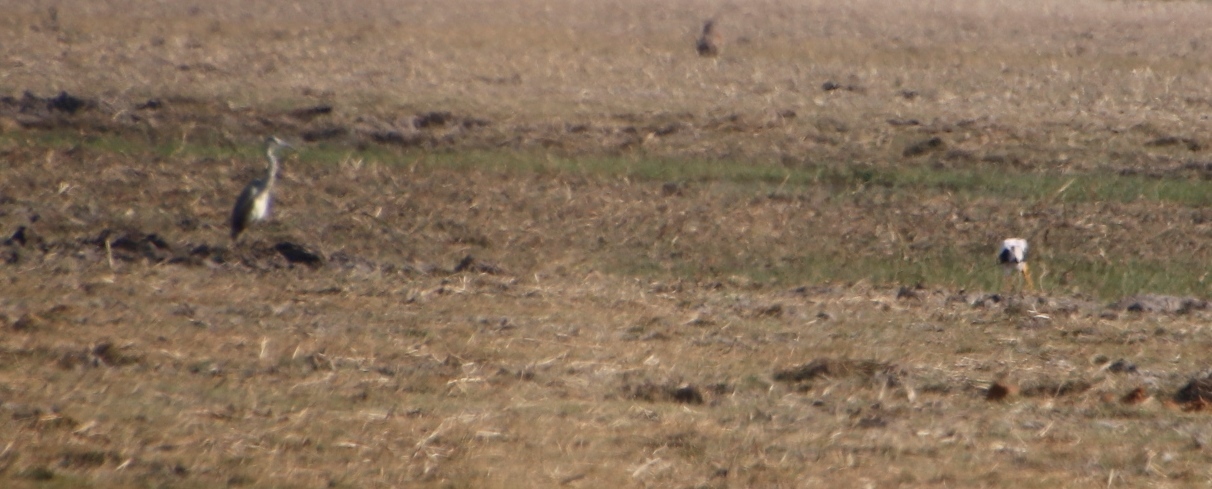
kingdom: Animalia
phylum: Chordata
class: Aves
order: Pelecaniformes
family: Ardeidae
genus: Ardea
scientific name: Ardea cinerea
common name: Grey heron
